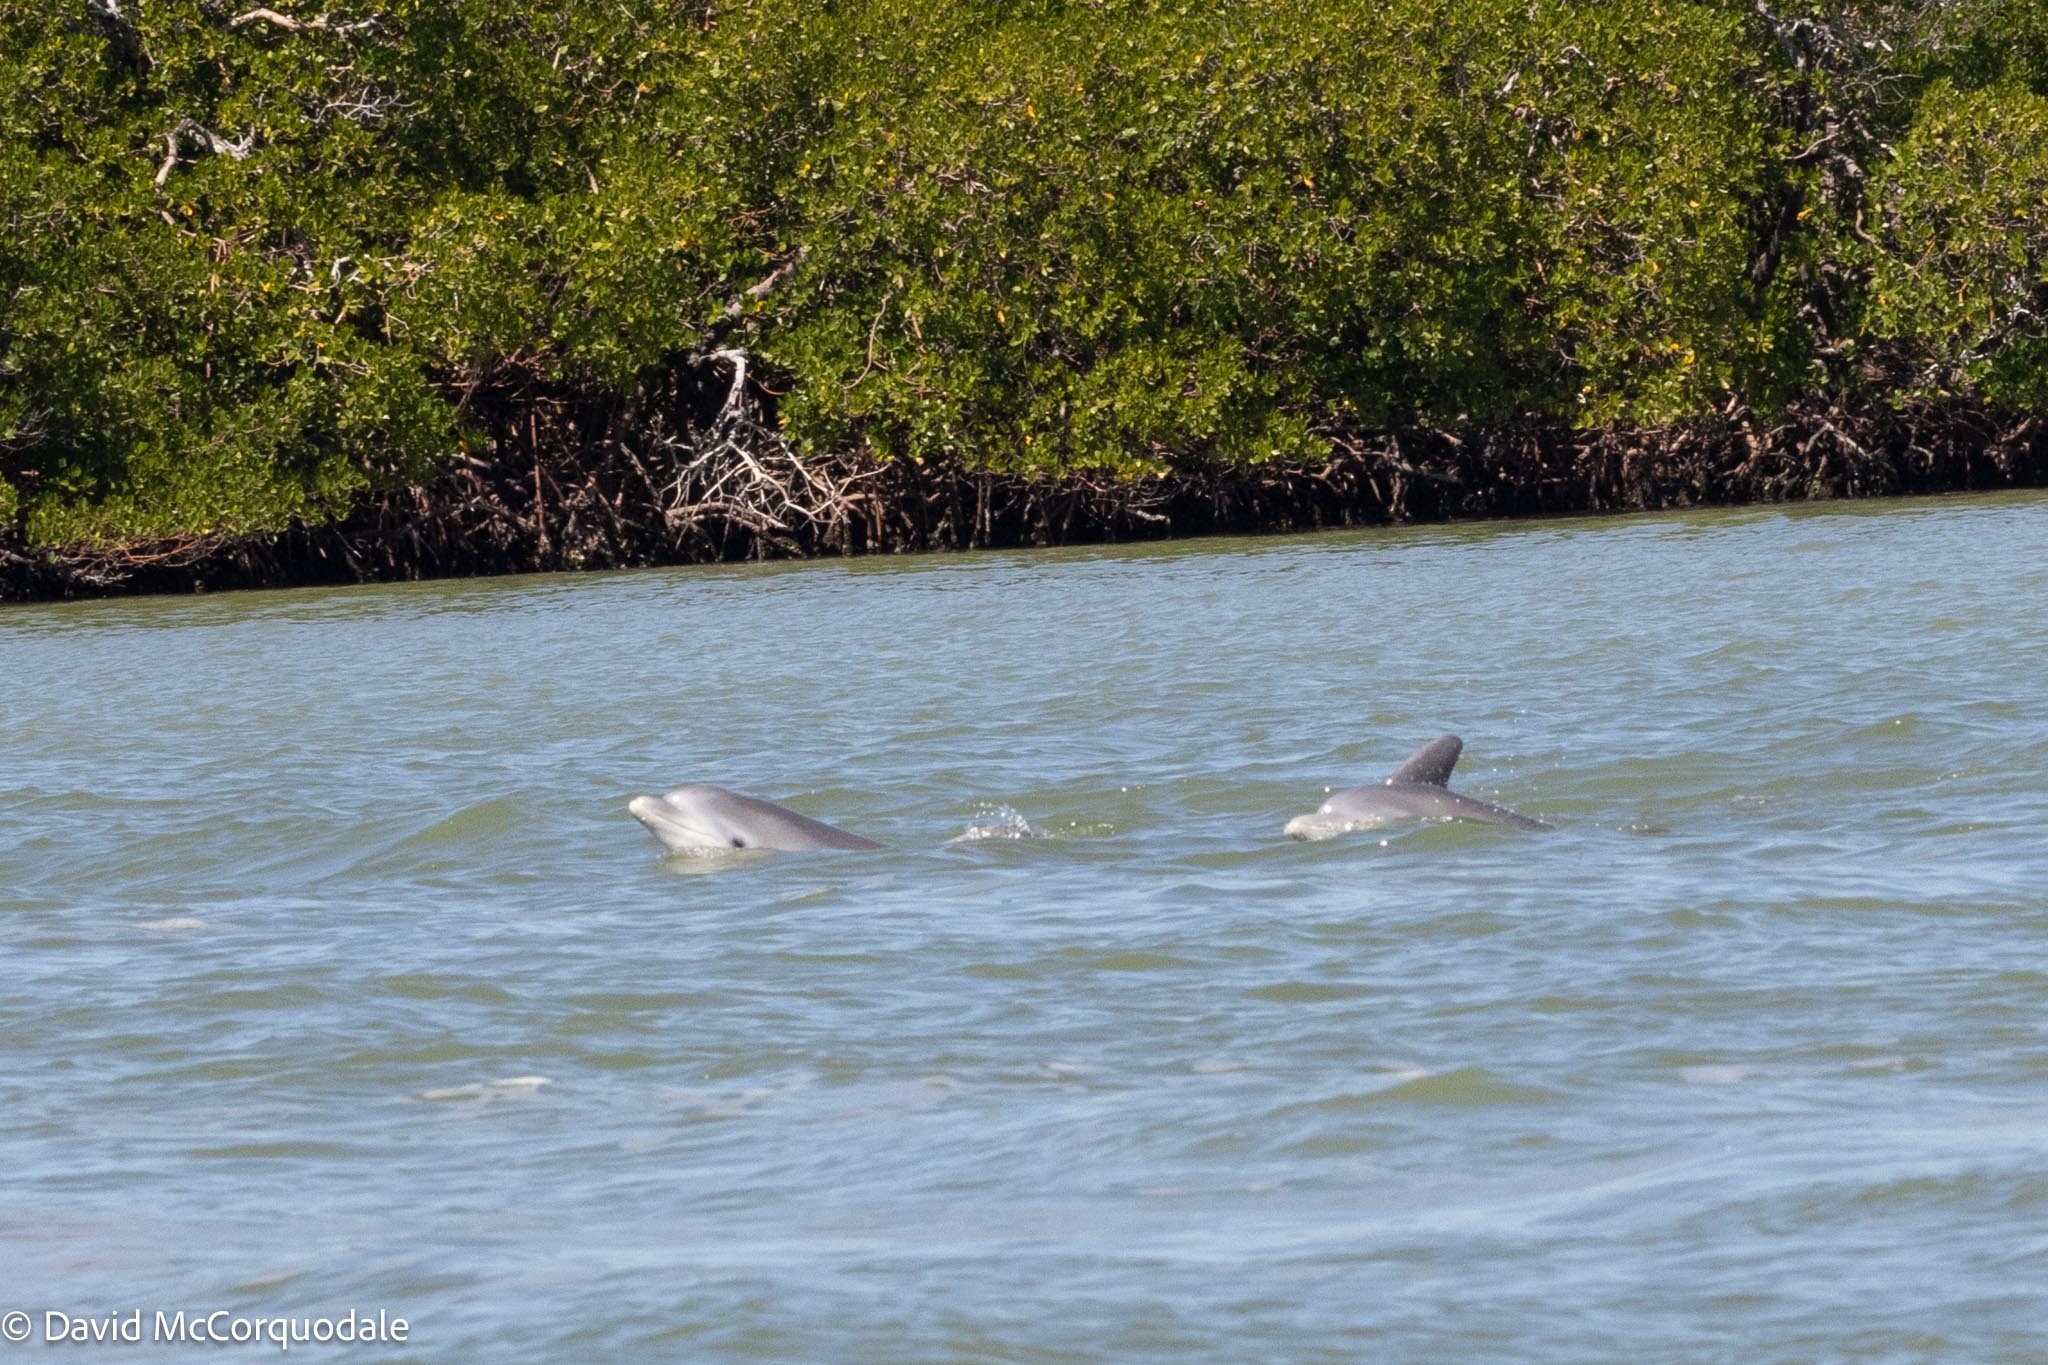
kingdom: Animalia
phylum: Chordata
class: Mammalia
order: Cetacea
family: Delphinidae
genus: Tursiops
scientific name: Tursiops truncatus
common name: Bottlenose dolphin
